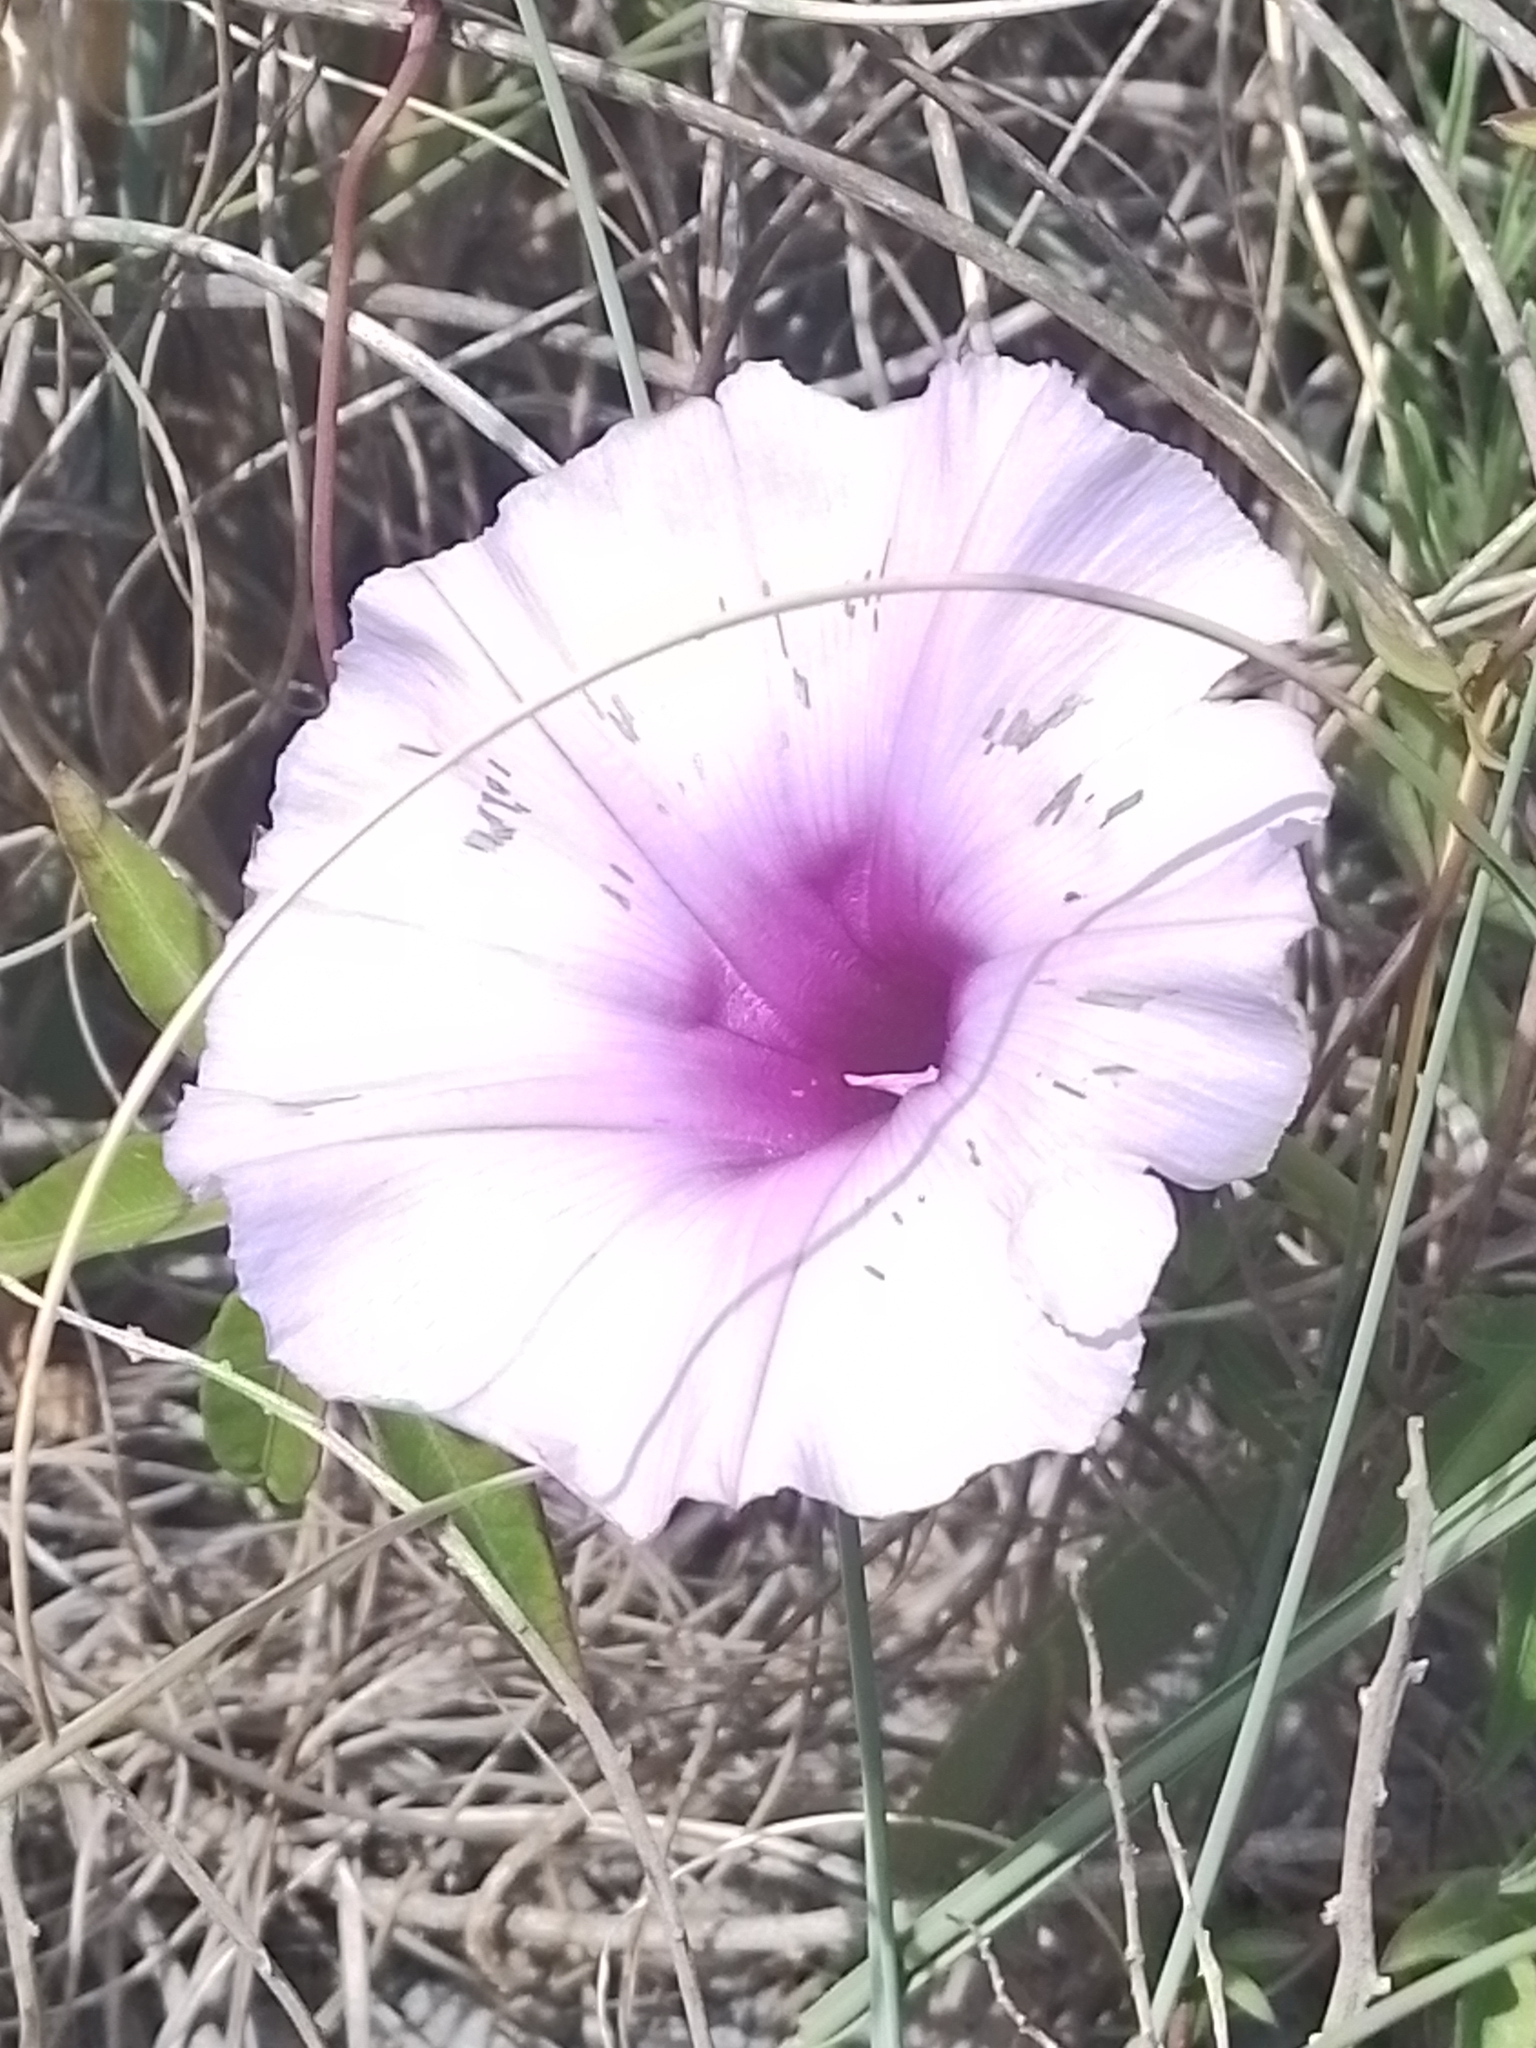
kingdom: Plantae
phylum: Tracheophyta
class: Magnoliopsida
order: Solanales
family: Convolvulaceae
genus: Ipomoea
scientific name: Ipomoea cairica
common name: Mile a minute vine
